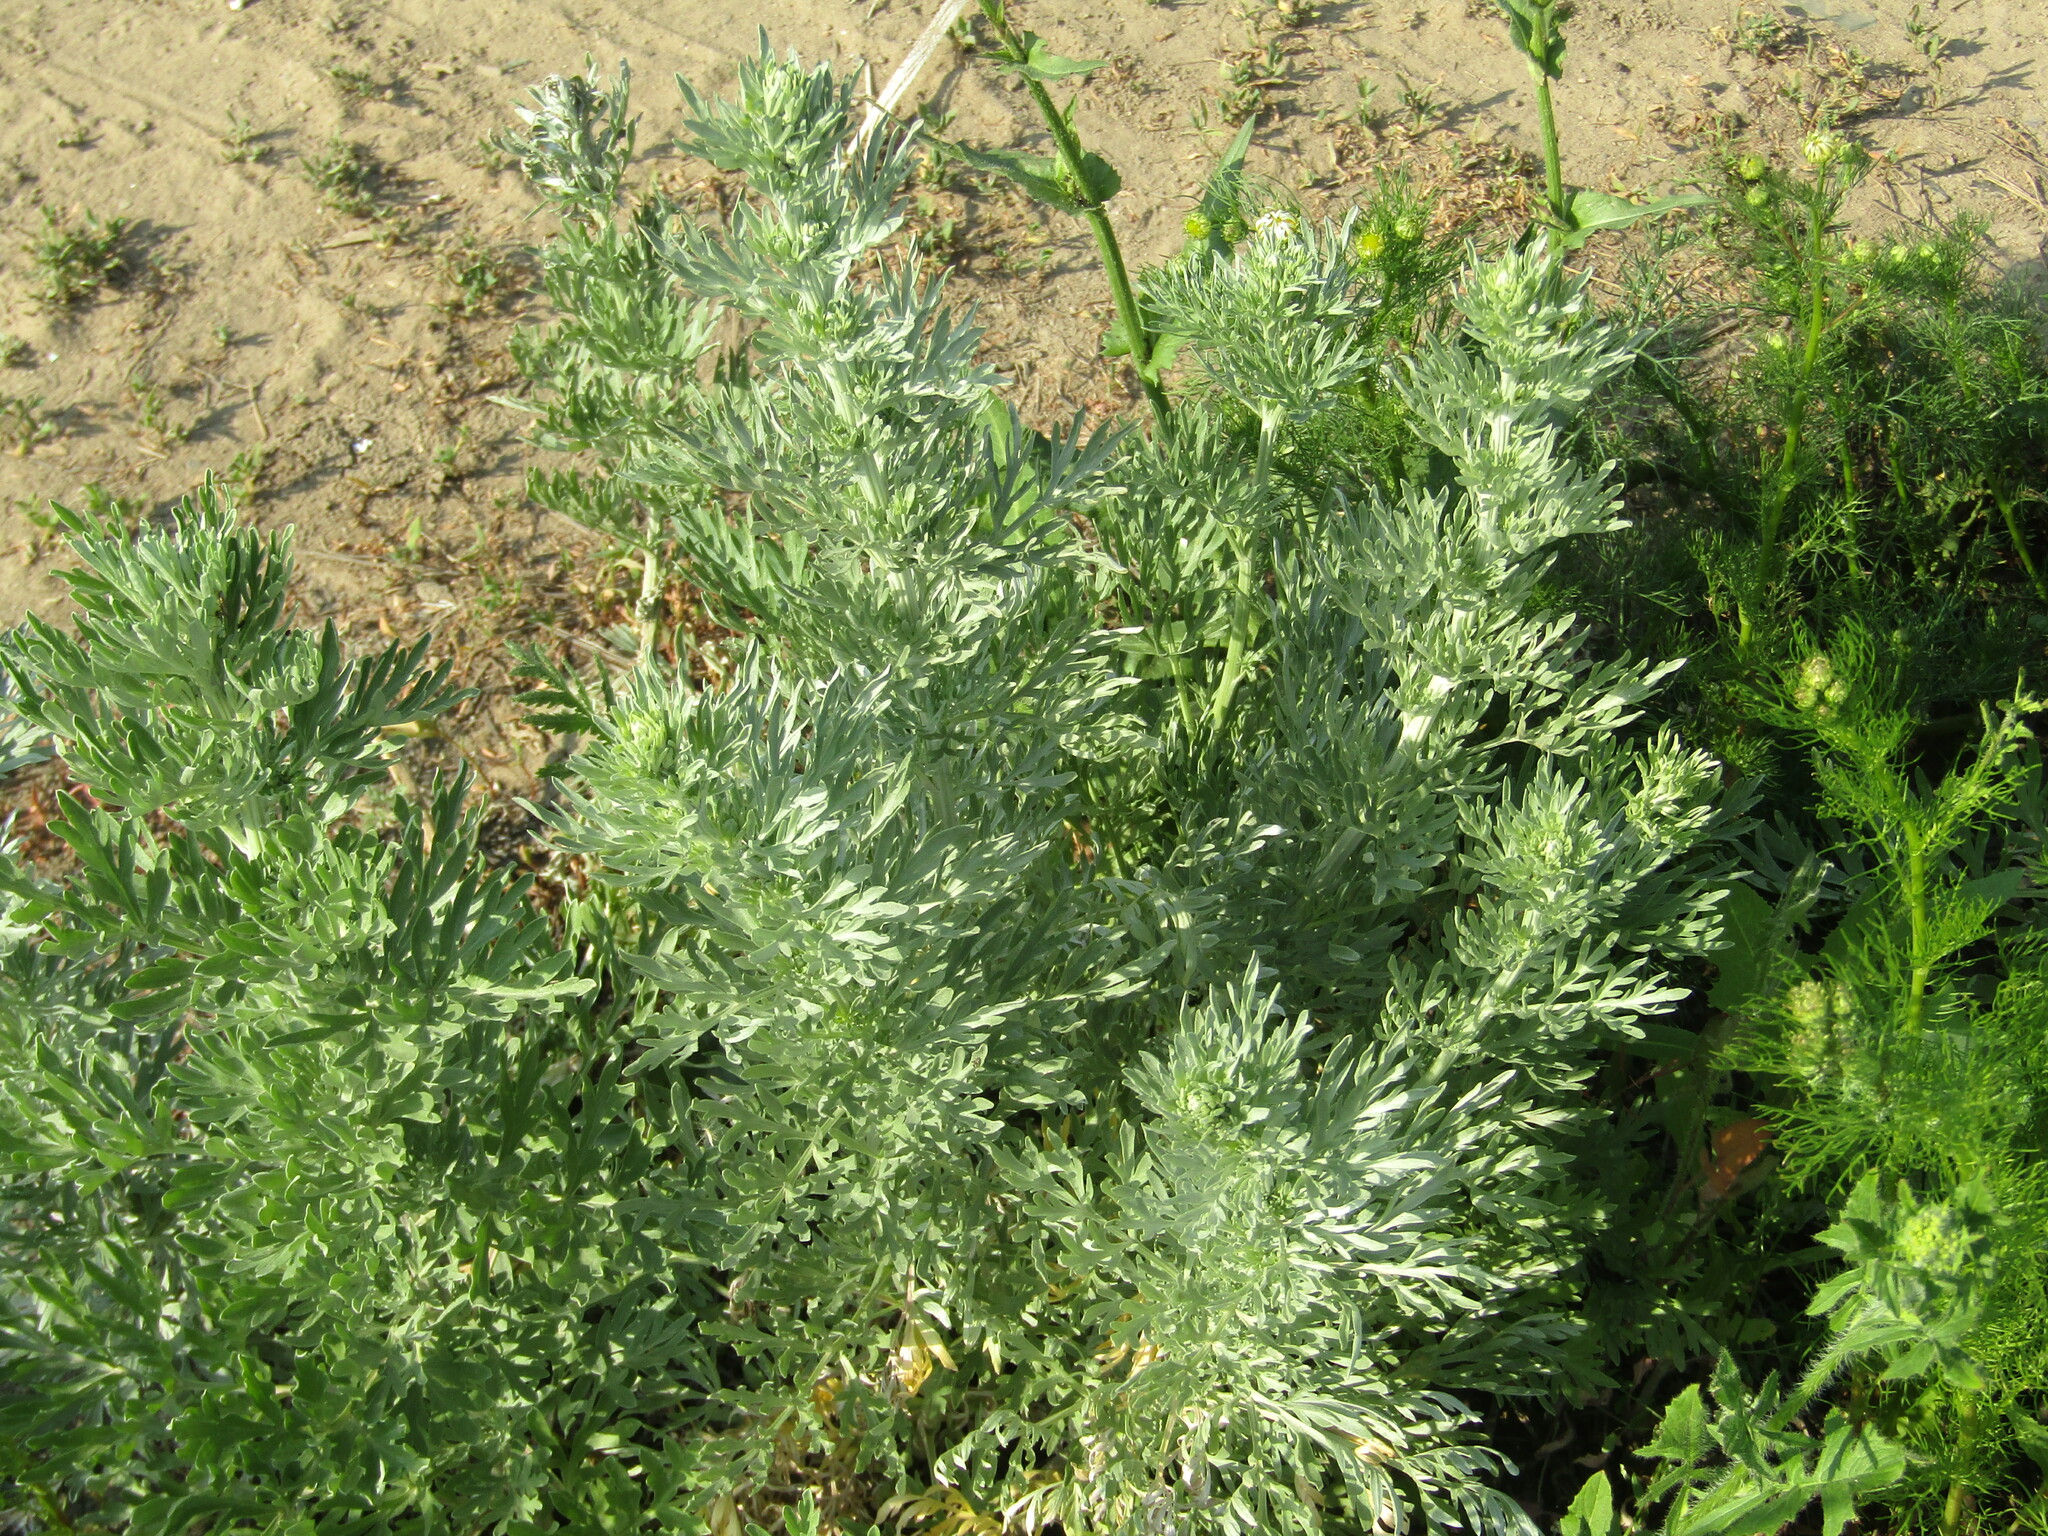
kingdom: Plantae
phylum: Tracheophyta
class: Magnoliopsida
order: Asterales
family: Asteraceae
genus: Artemisia
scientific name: Artemisia absinthium
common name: Wormwood
